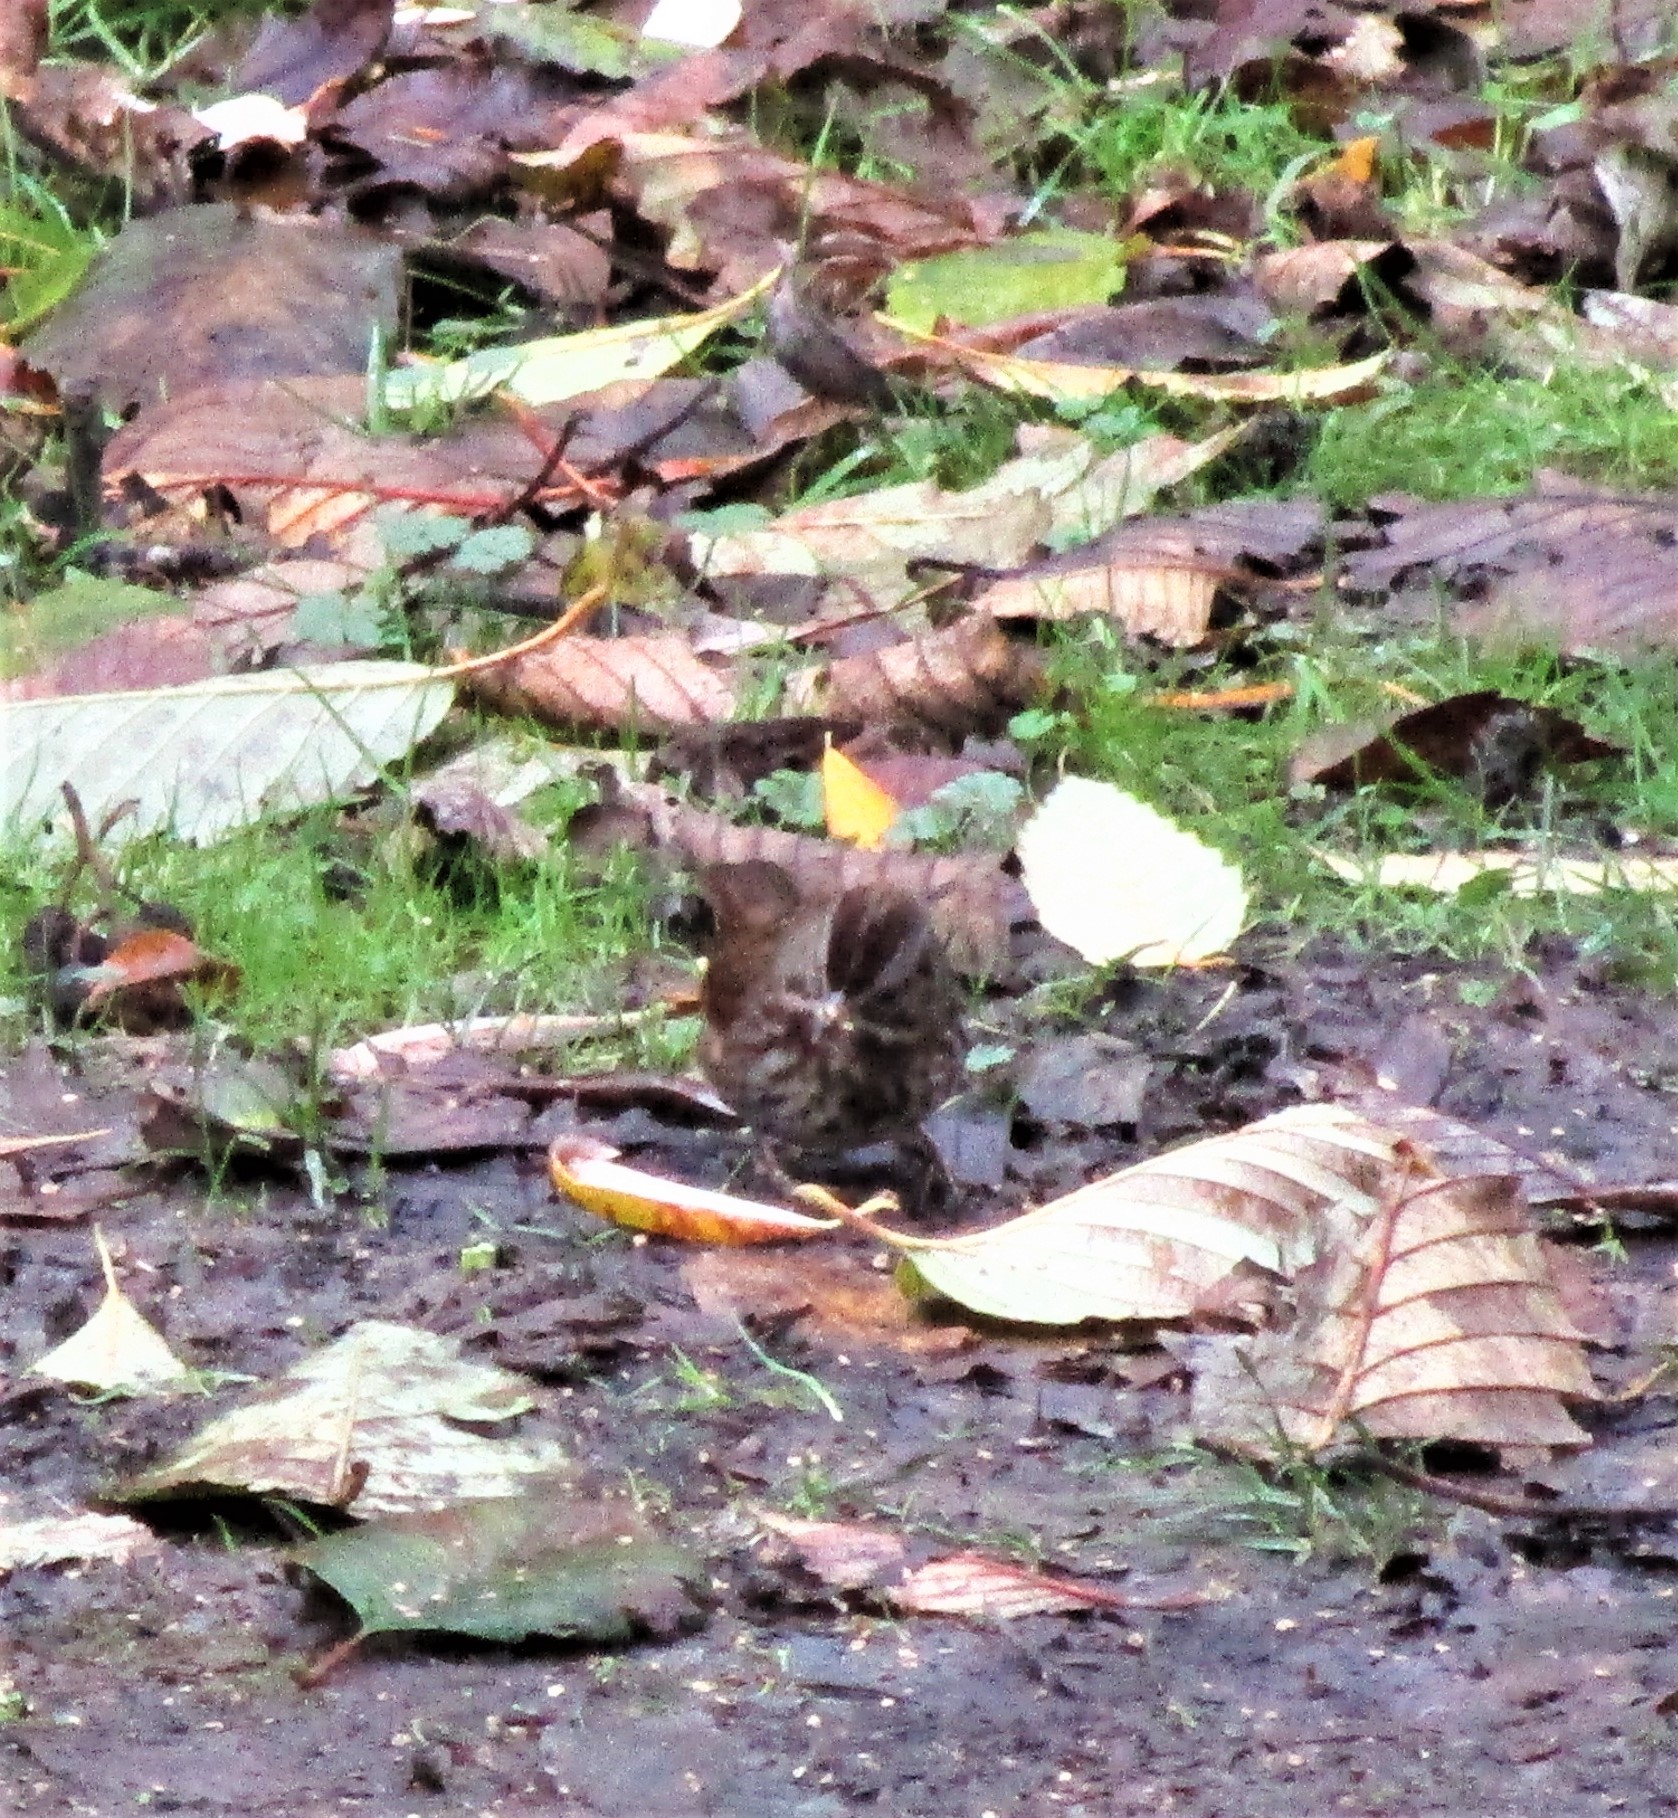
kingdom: Animalia
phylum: Chordata
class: Aves
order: Passeriformes
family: Passerellidae
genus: Melospiza
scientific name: Melospiza melodia
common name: Song sparrow
